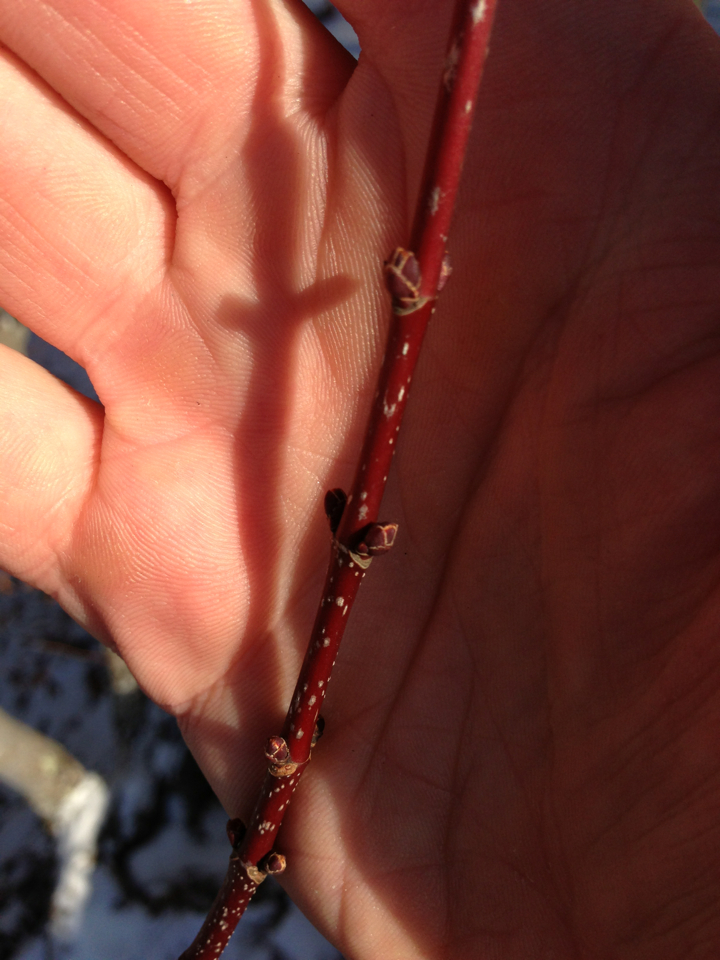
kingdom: Plantae
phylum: Tracheophyta
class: Magnoliopsida
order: Sapindales
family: Sapindaceae
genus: Acer
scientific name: Acer rubrum
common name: Red maple
